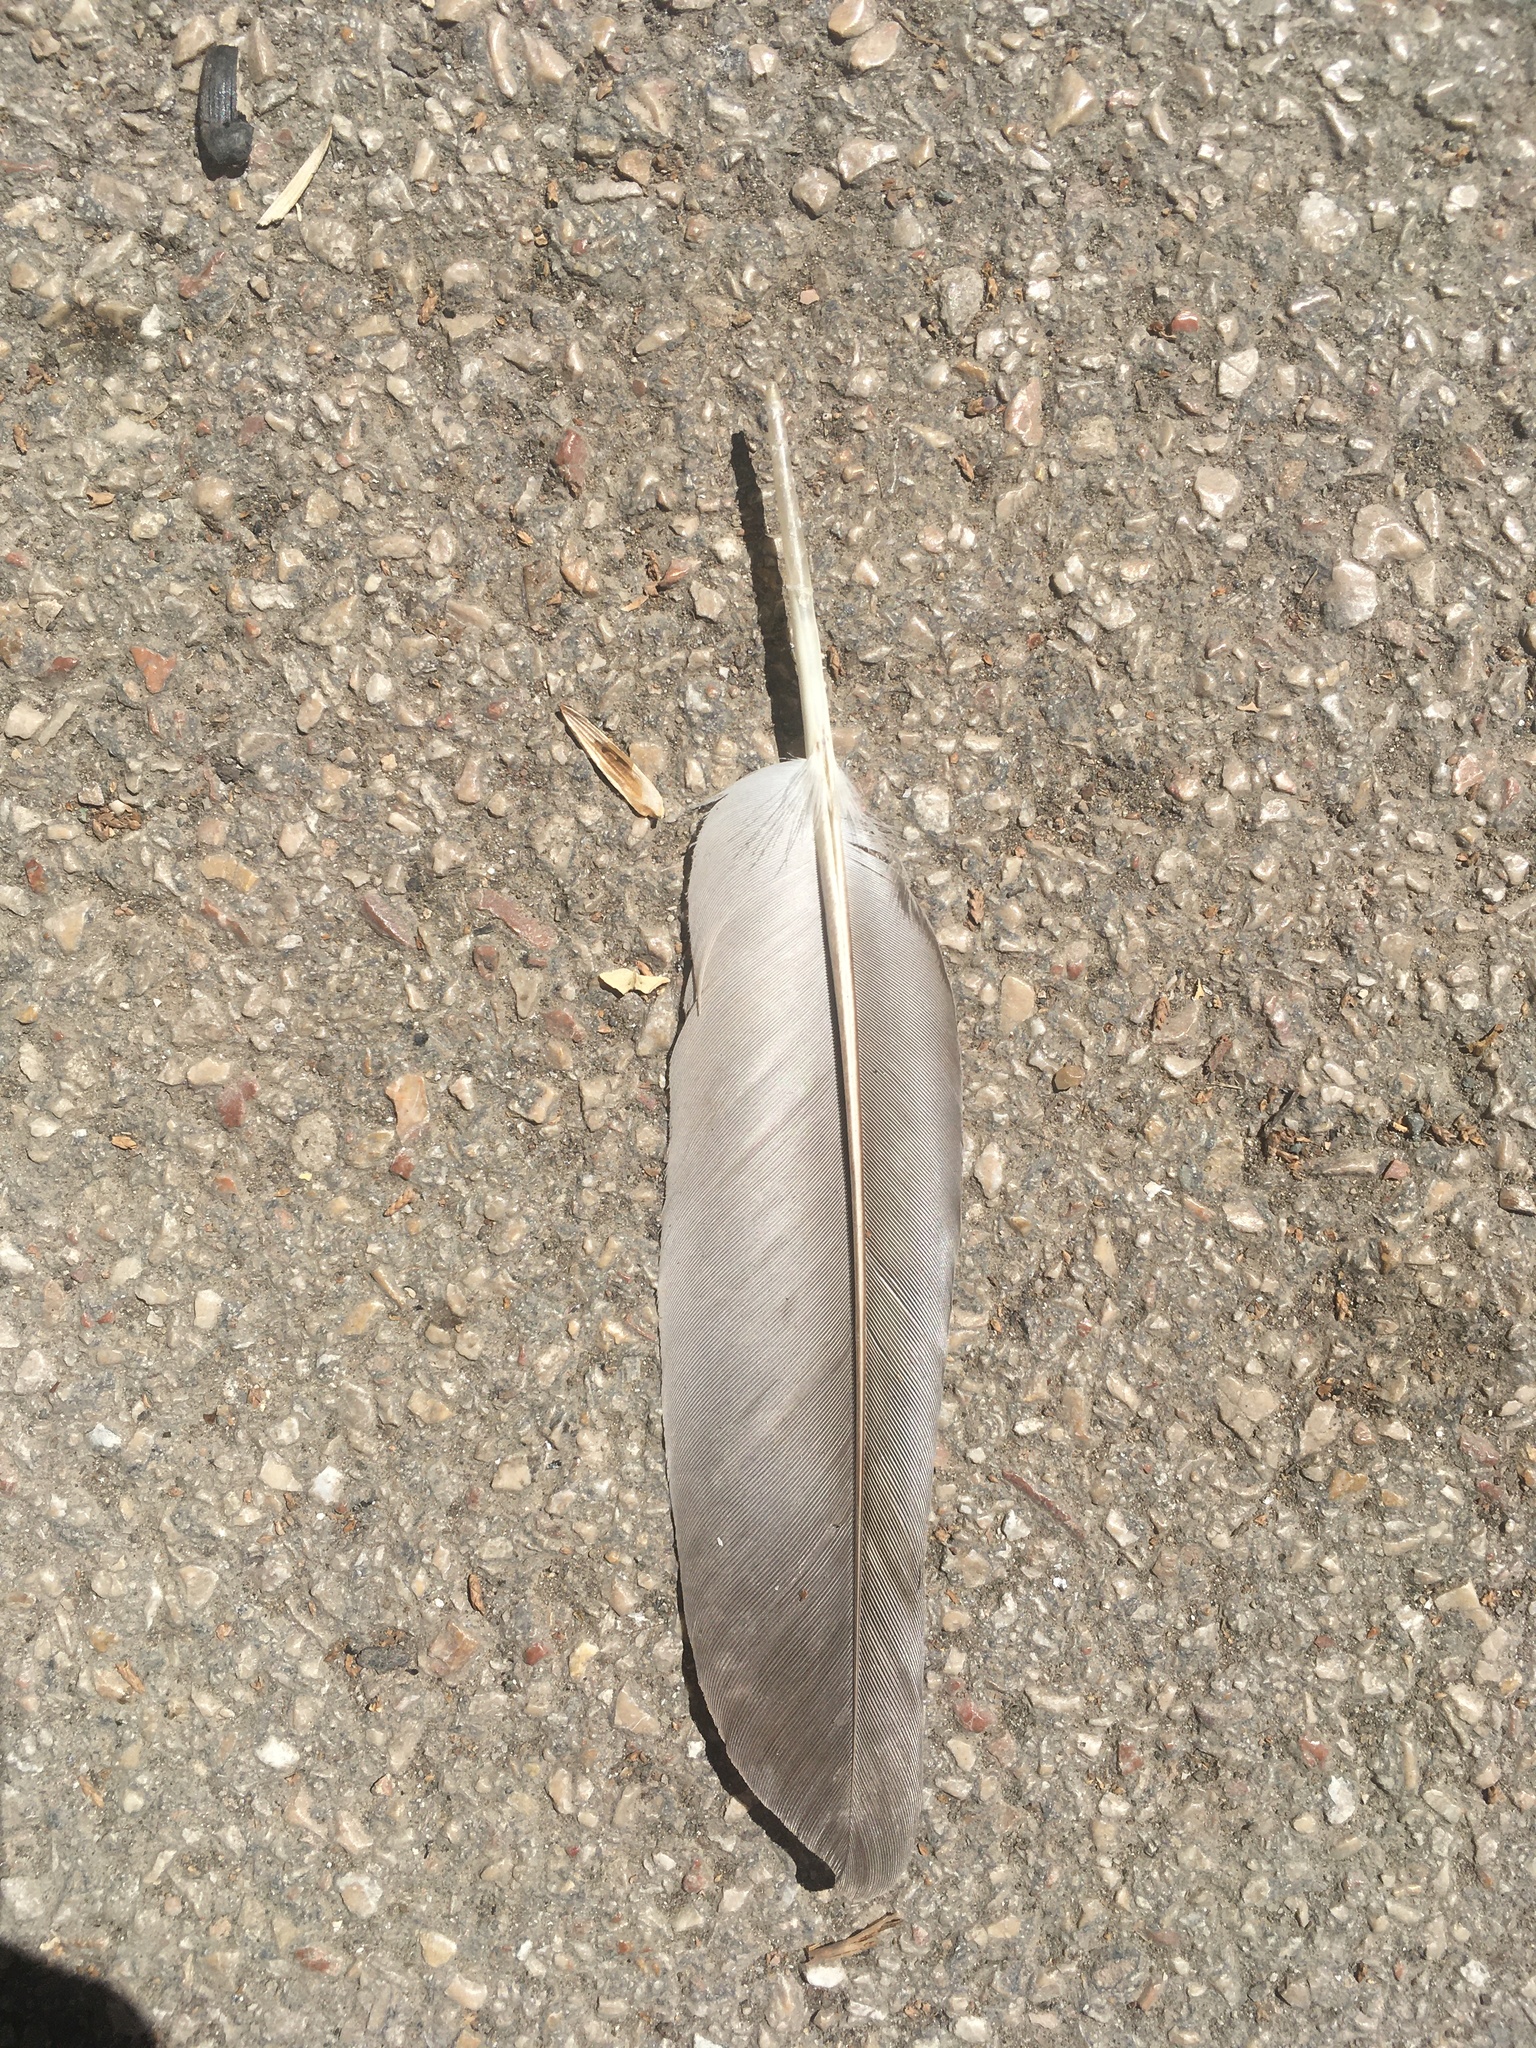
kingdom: Animalia
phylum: Chordata
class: Aves
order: Columbiformes
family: Columbidae
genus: Columba
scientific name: Columba livia
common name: Rock pigeon
